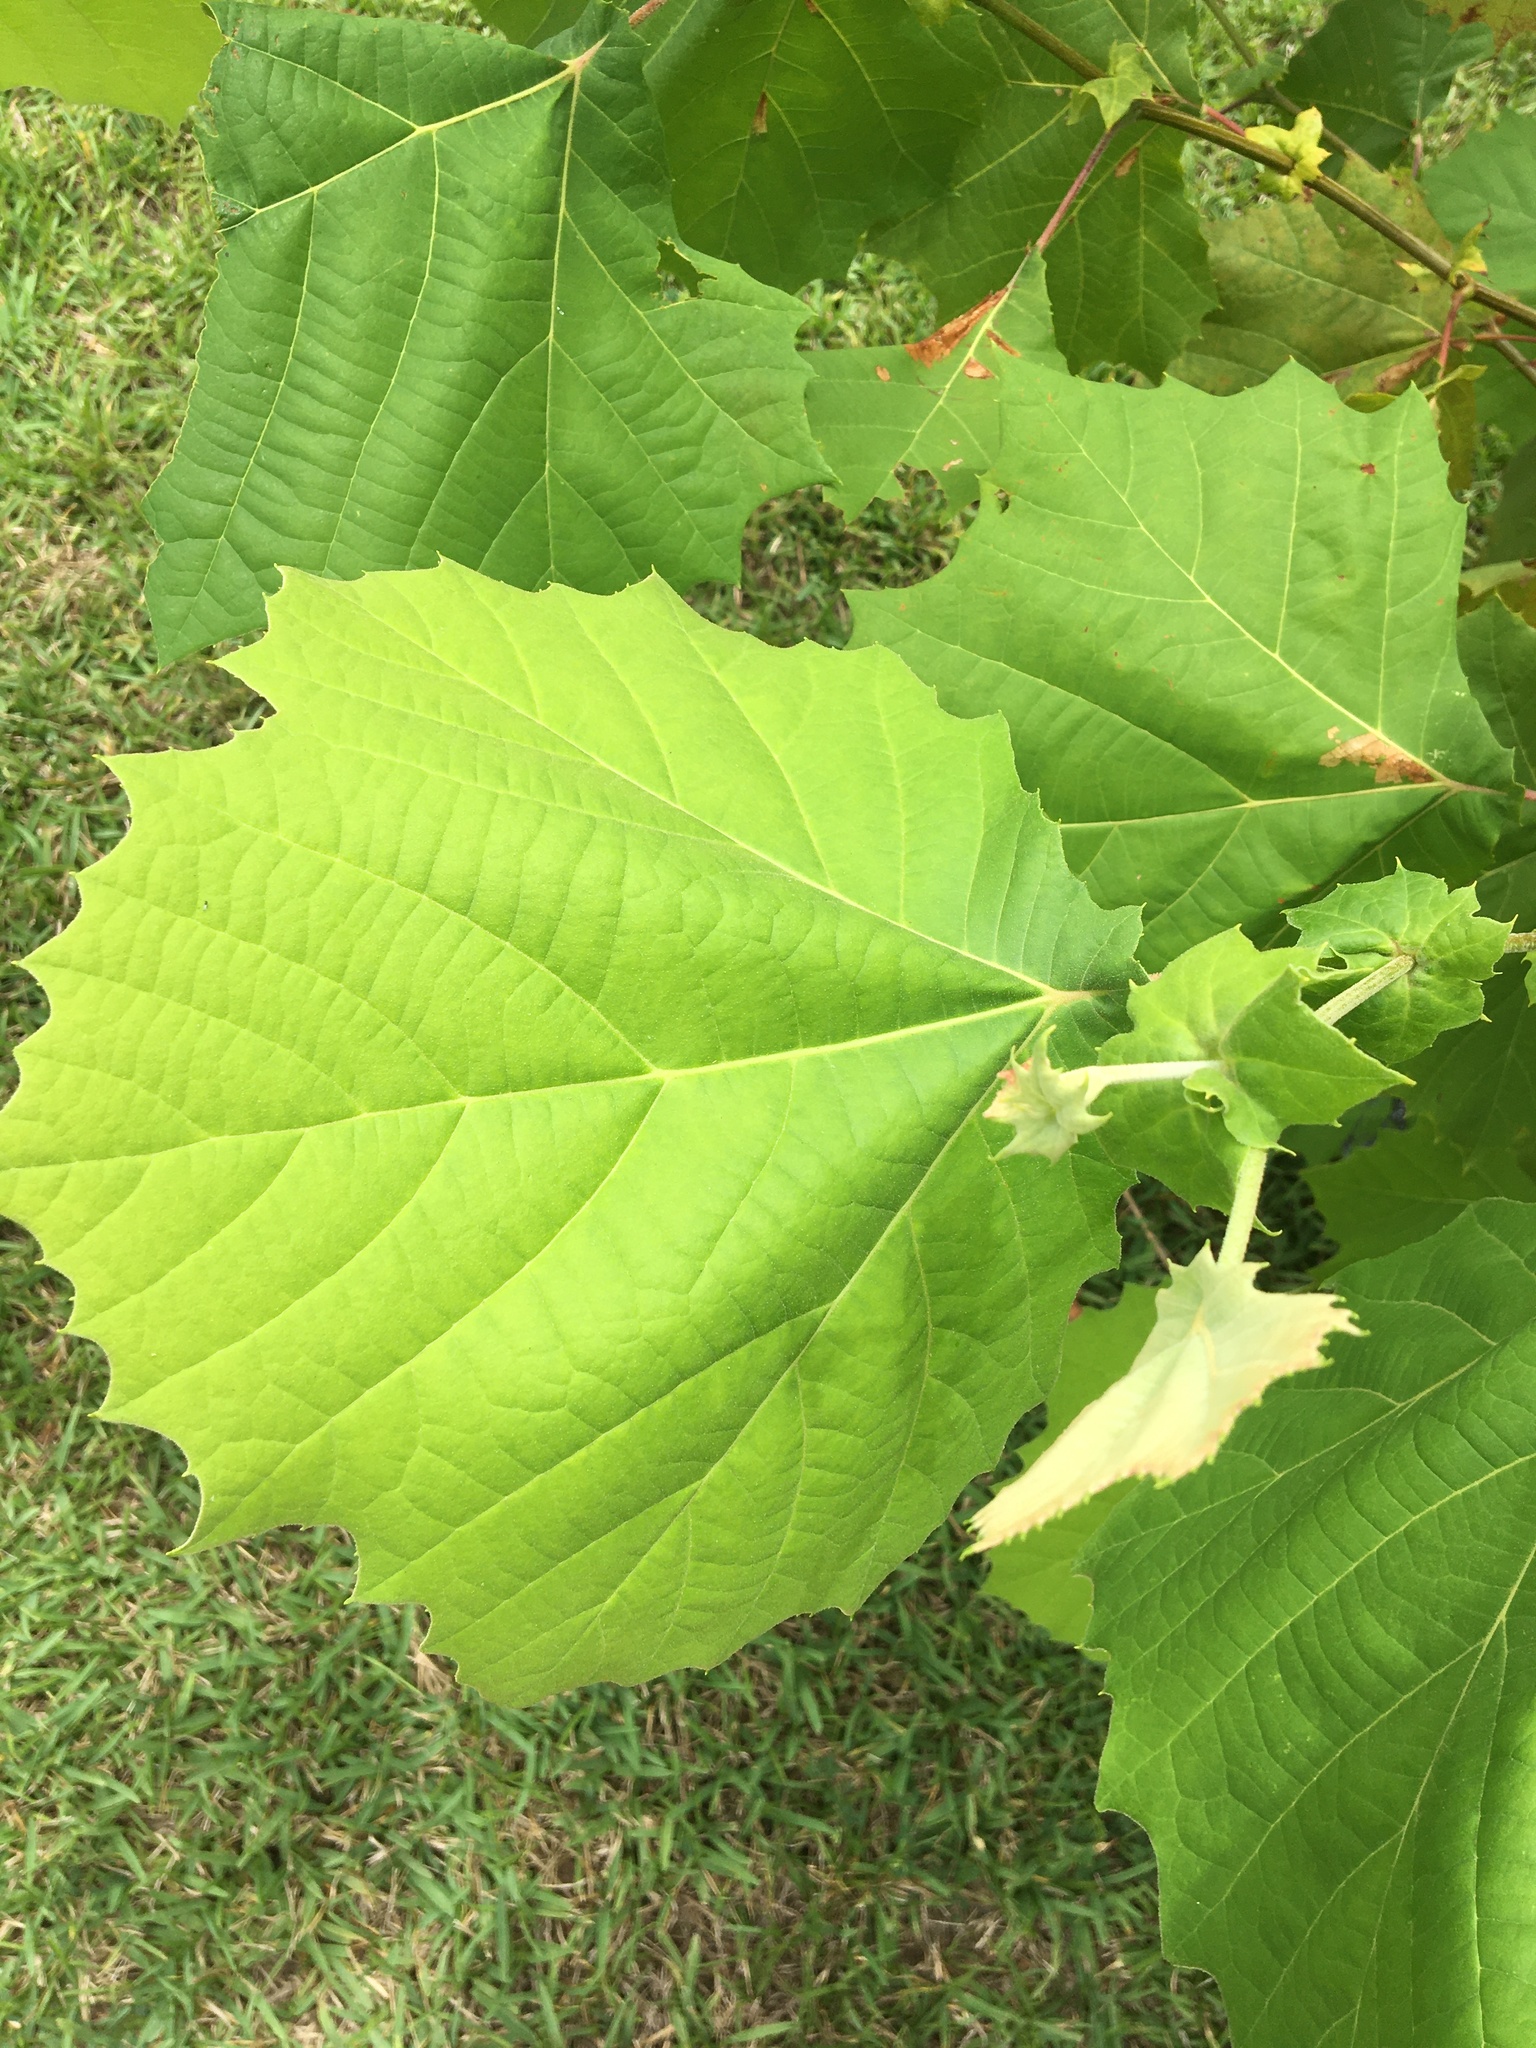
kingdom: Plantae
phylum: Tracheophyta
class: Magnoliopsida
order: Proteales
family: Platanaceae
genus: Platanus
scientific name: Platanus occidentalis
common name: American sycamore
